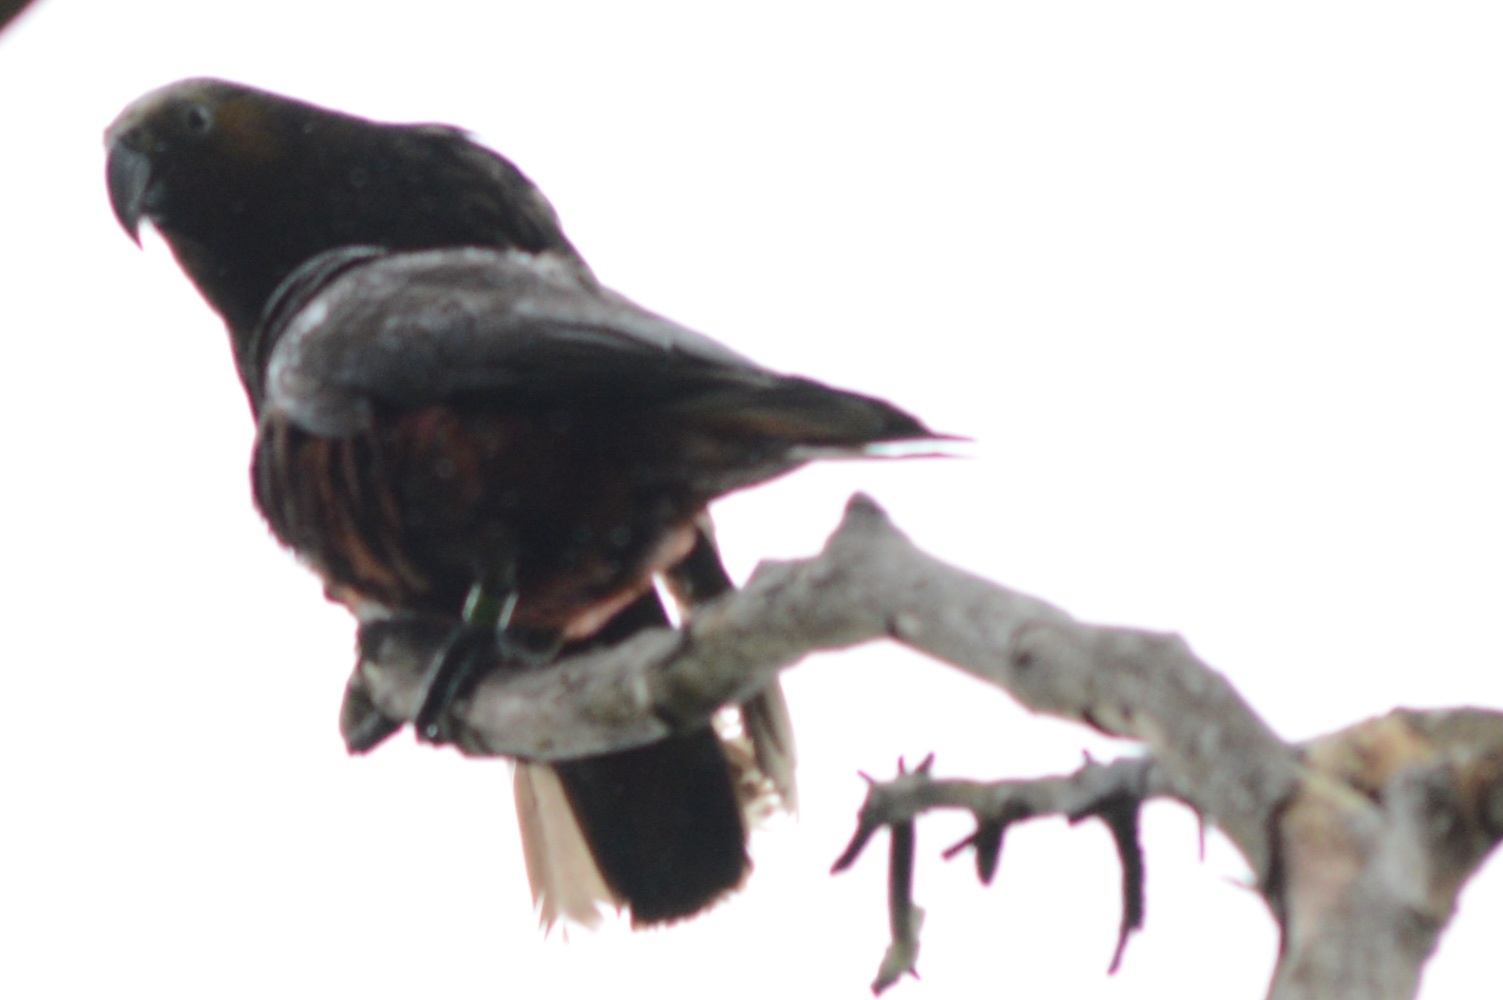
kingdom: Animalia
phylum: Chordata
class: Aves
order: Psittaciformes
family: Psittacidae
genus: Nestor
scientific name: Nestor meridionalis
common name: New zealand kaka
